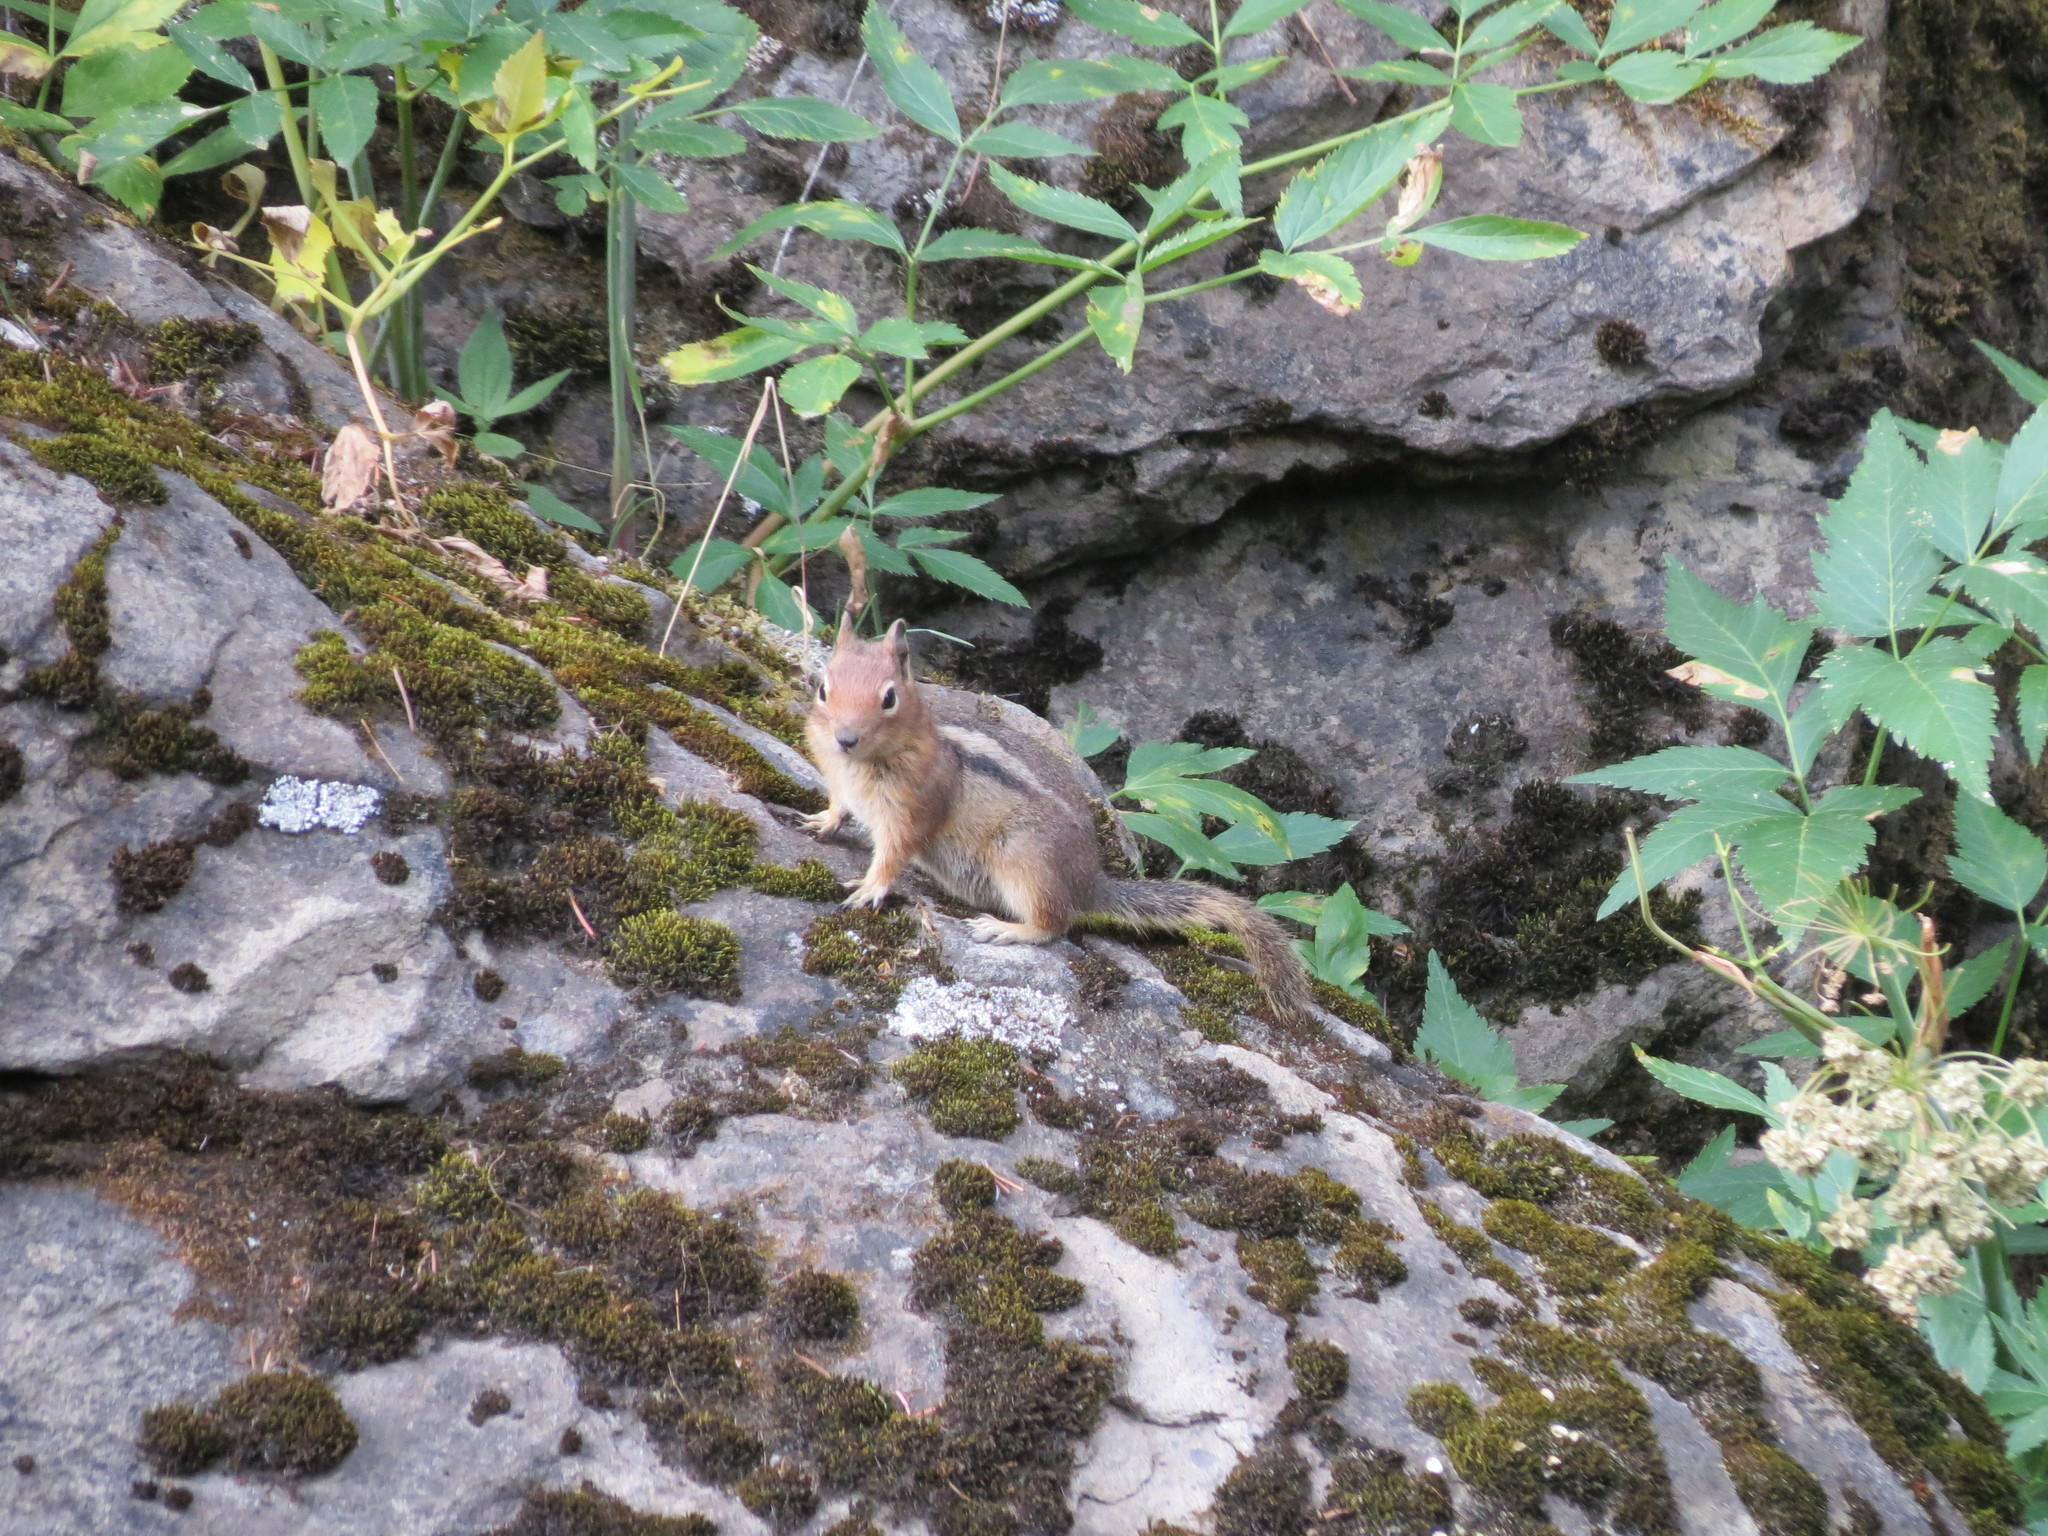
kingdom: Animalia
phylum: Chordata
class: Mammalia
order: Rodentia
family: Sciuridae
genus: Callospermophilus
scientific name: Callospermophilus saturatus
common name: Cascade golden-mantled ground squirrel
